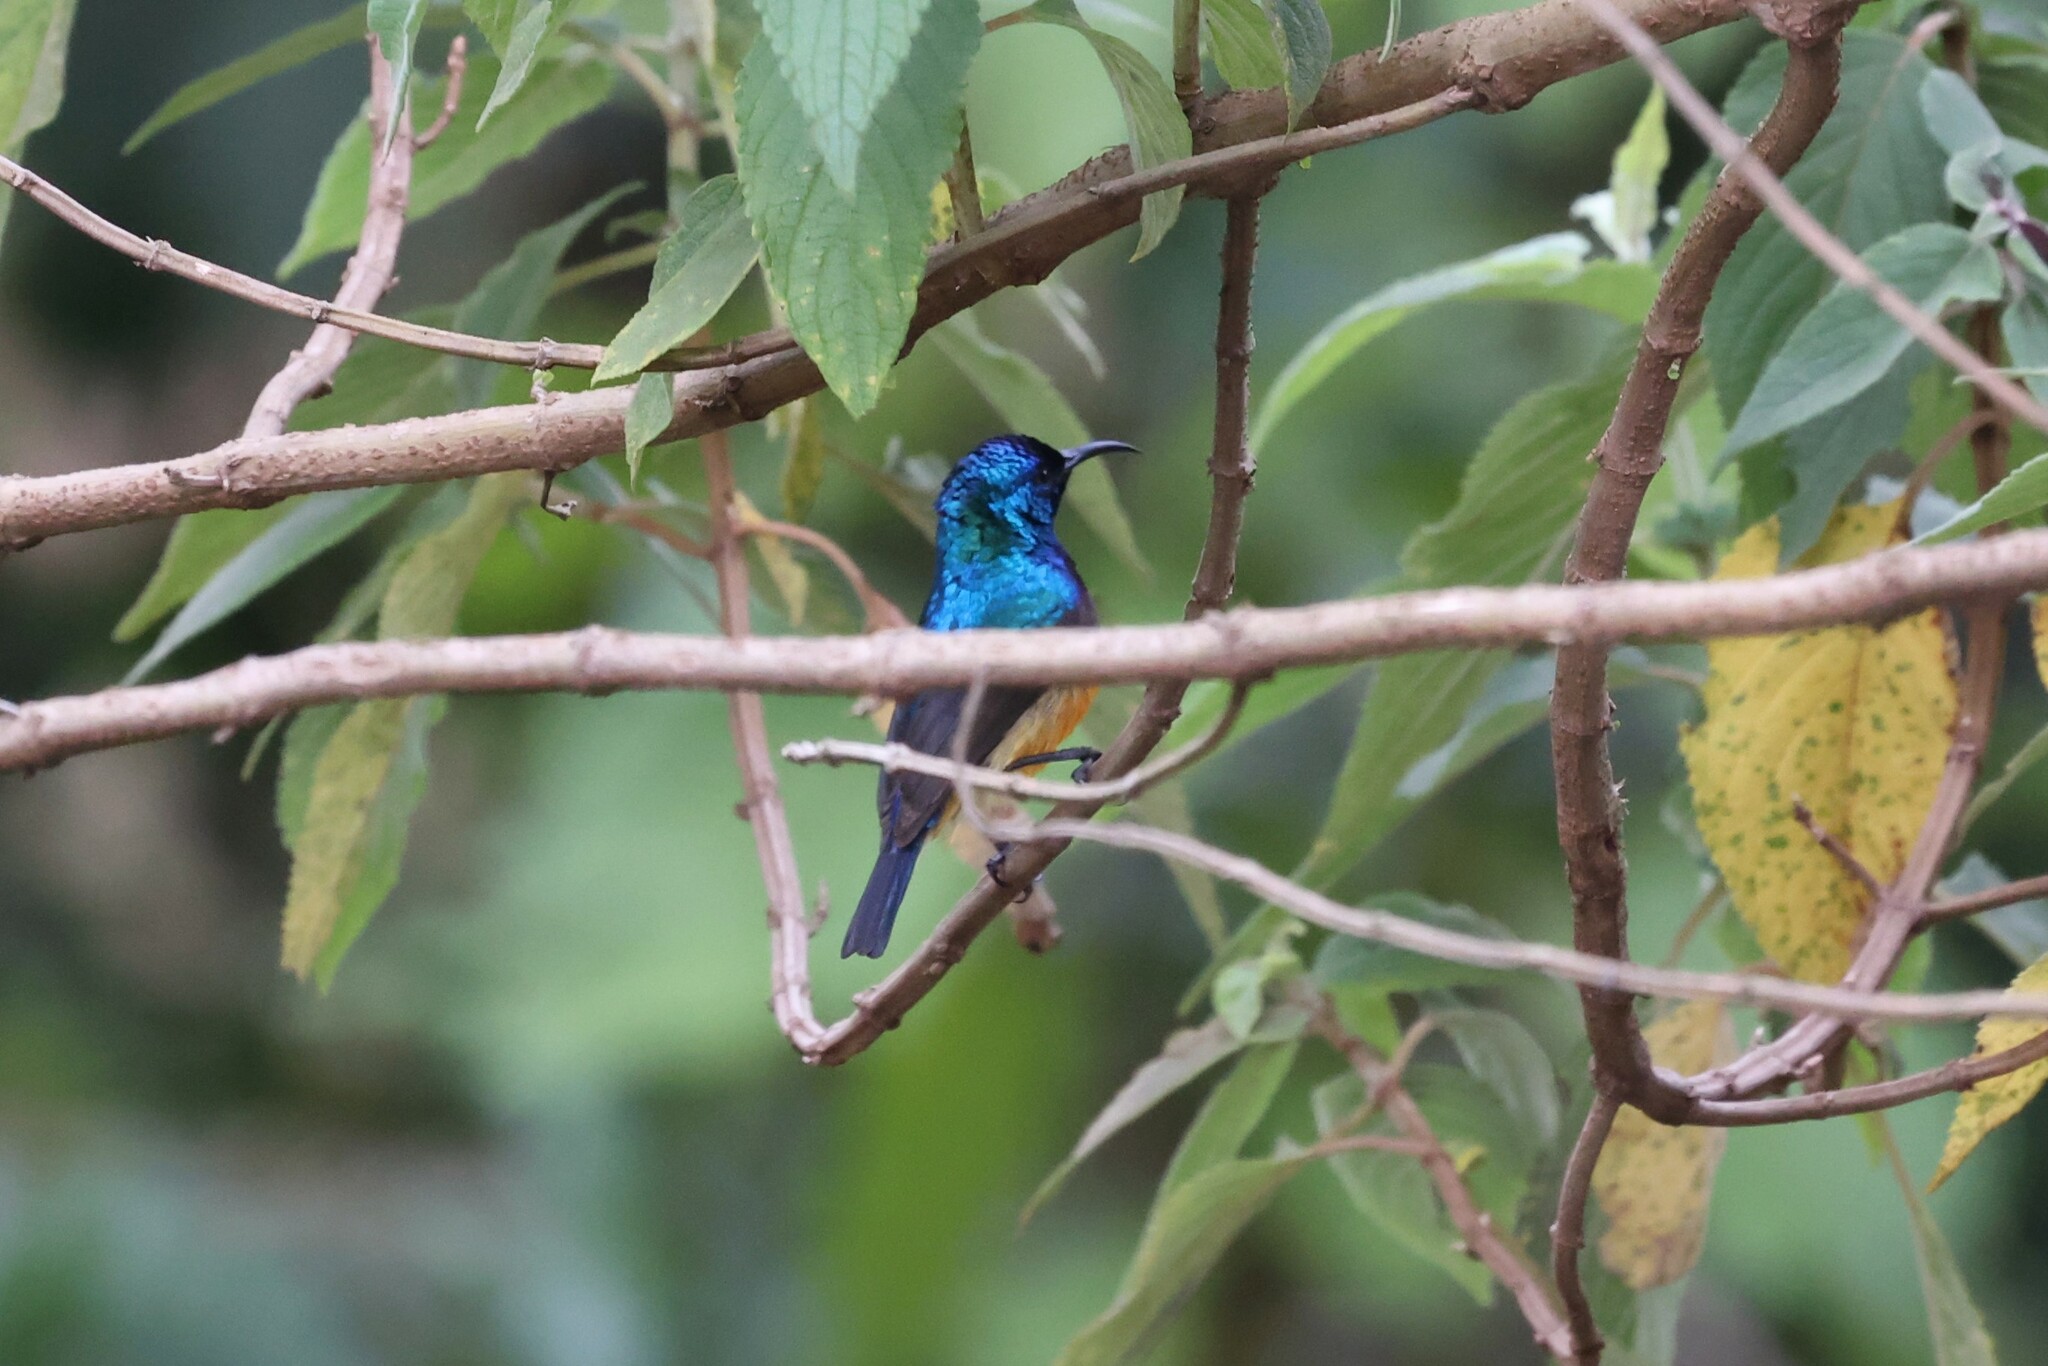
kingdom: Animalia
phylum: Chordata
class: Aves
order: Passeriformes
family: Nectariniidae
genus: Cinnyris
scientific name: Cinnyris venustus
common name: Variable sunbird
